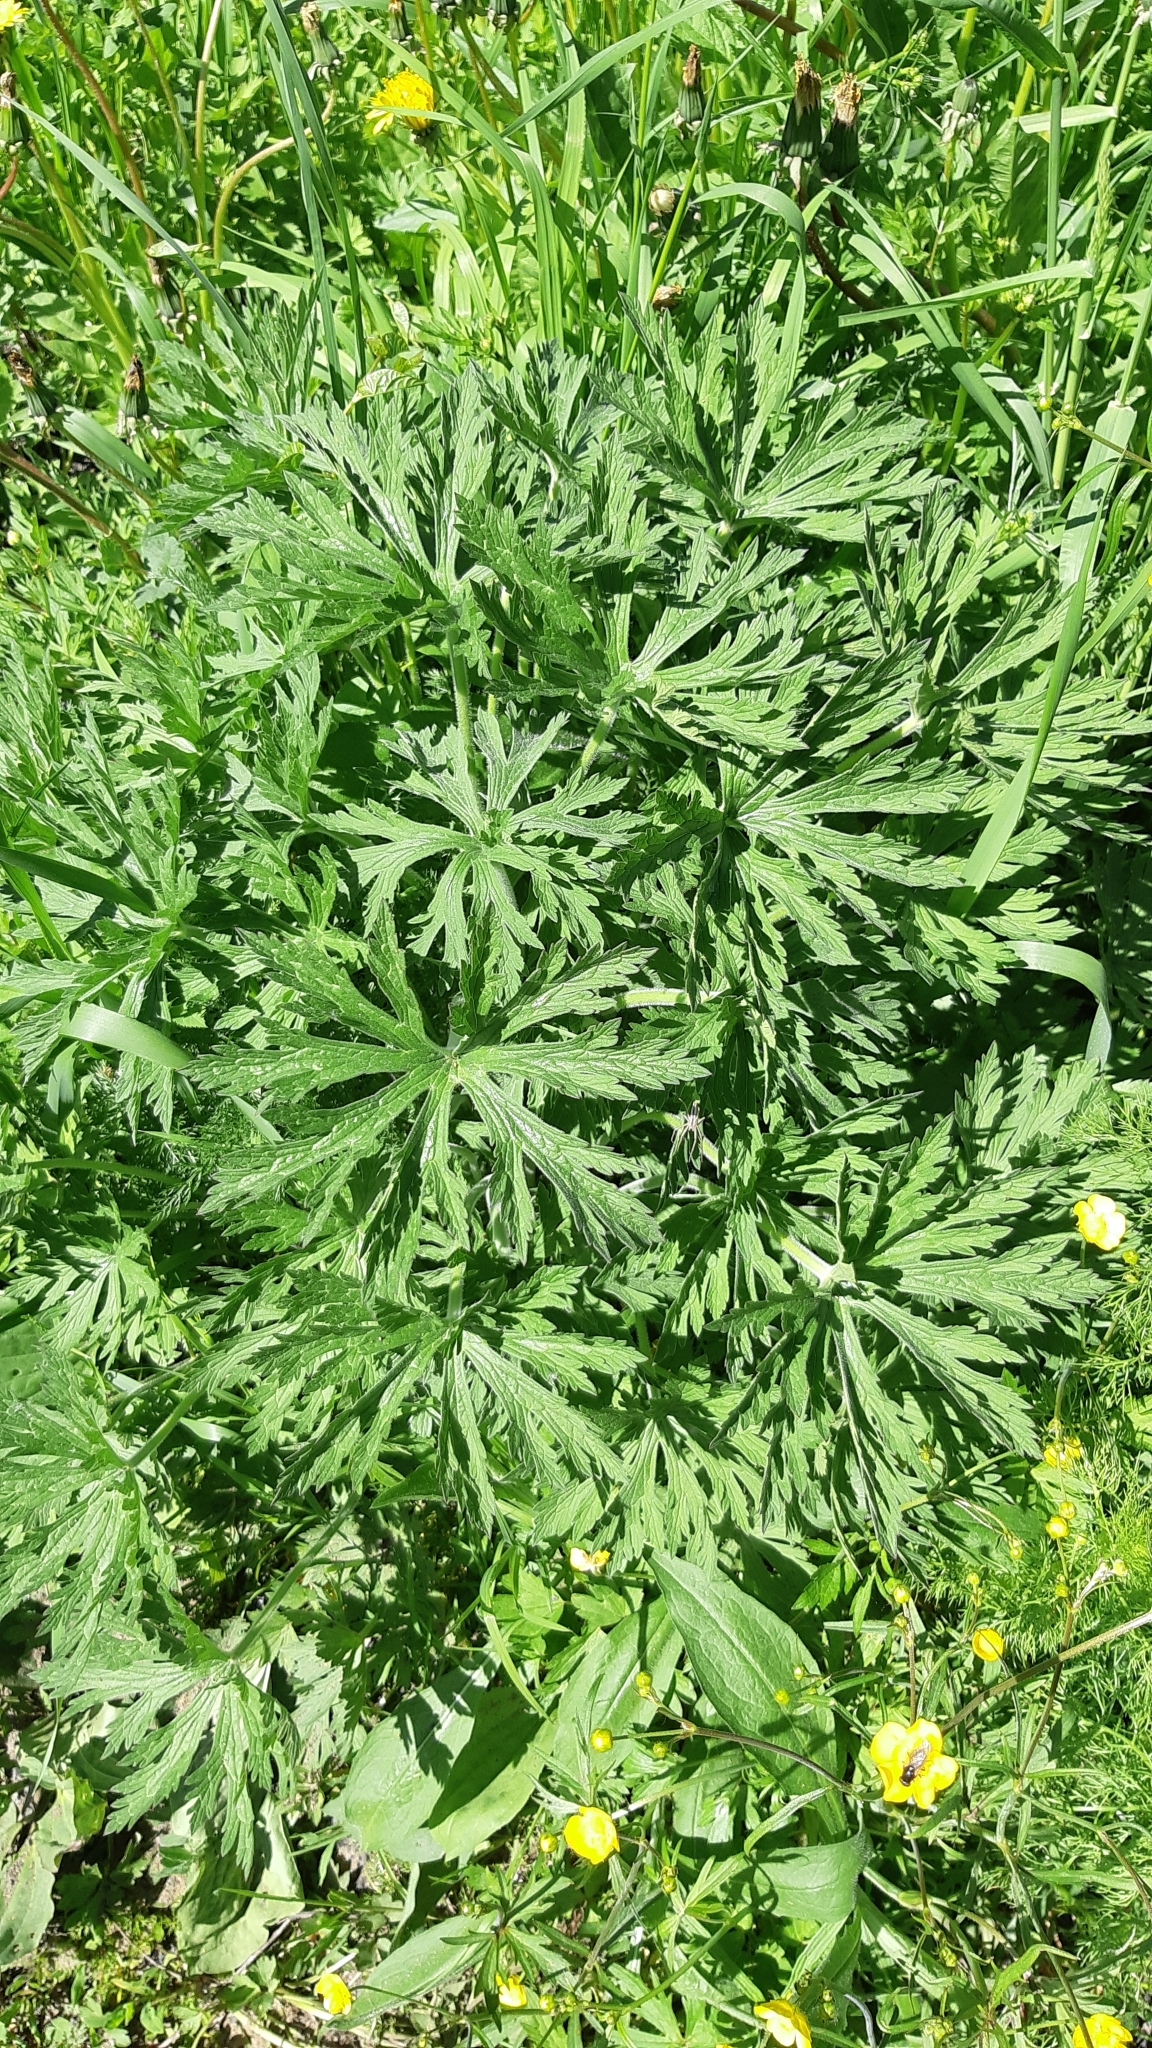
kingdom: Plantae
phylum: Tracheophyta
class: Magnoliopsida
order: Geraniales
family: Geraniaceae
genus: Geranium
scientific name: Geranium pratense
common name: Meadow crane's-bill
